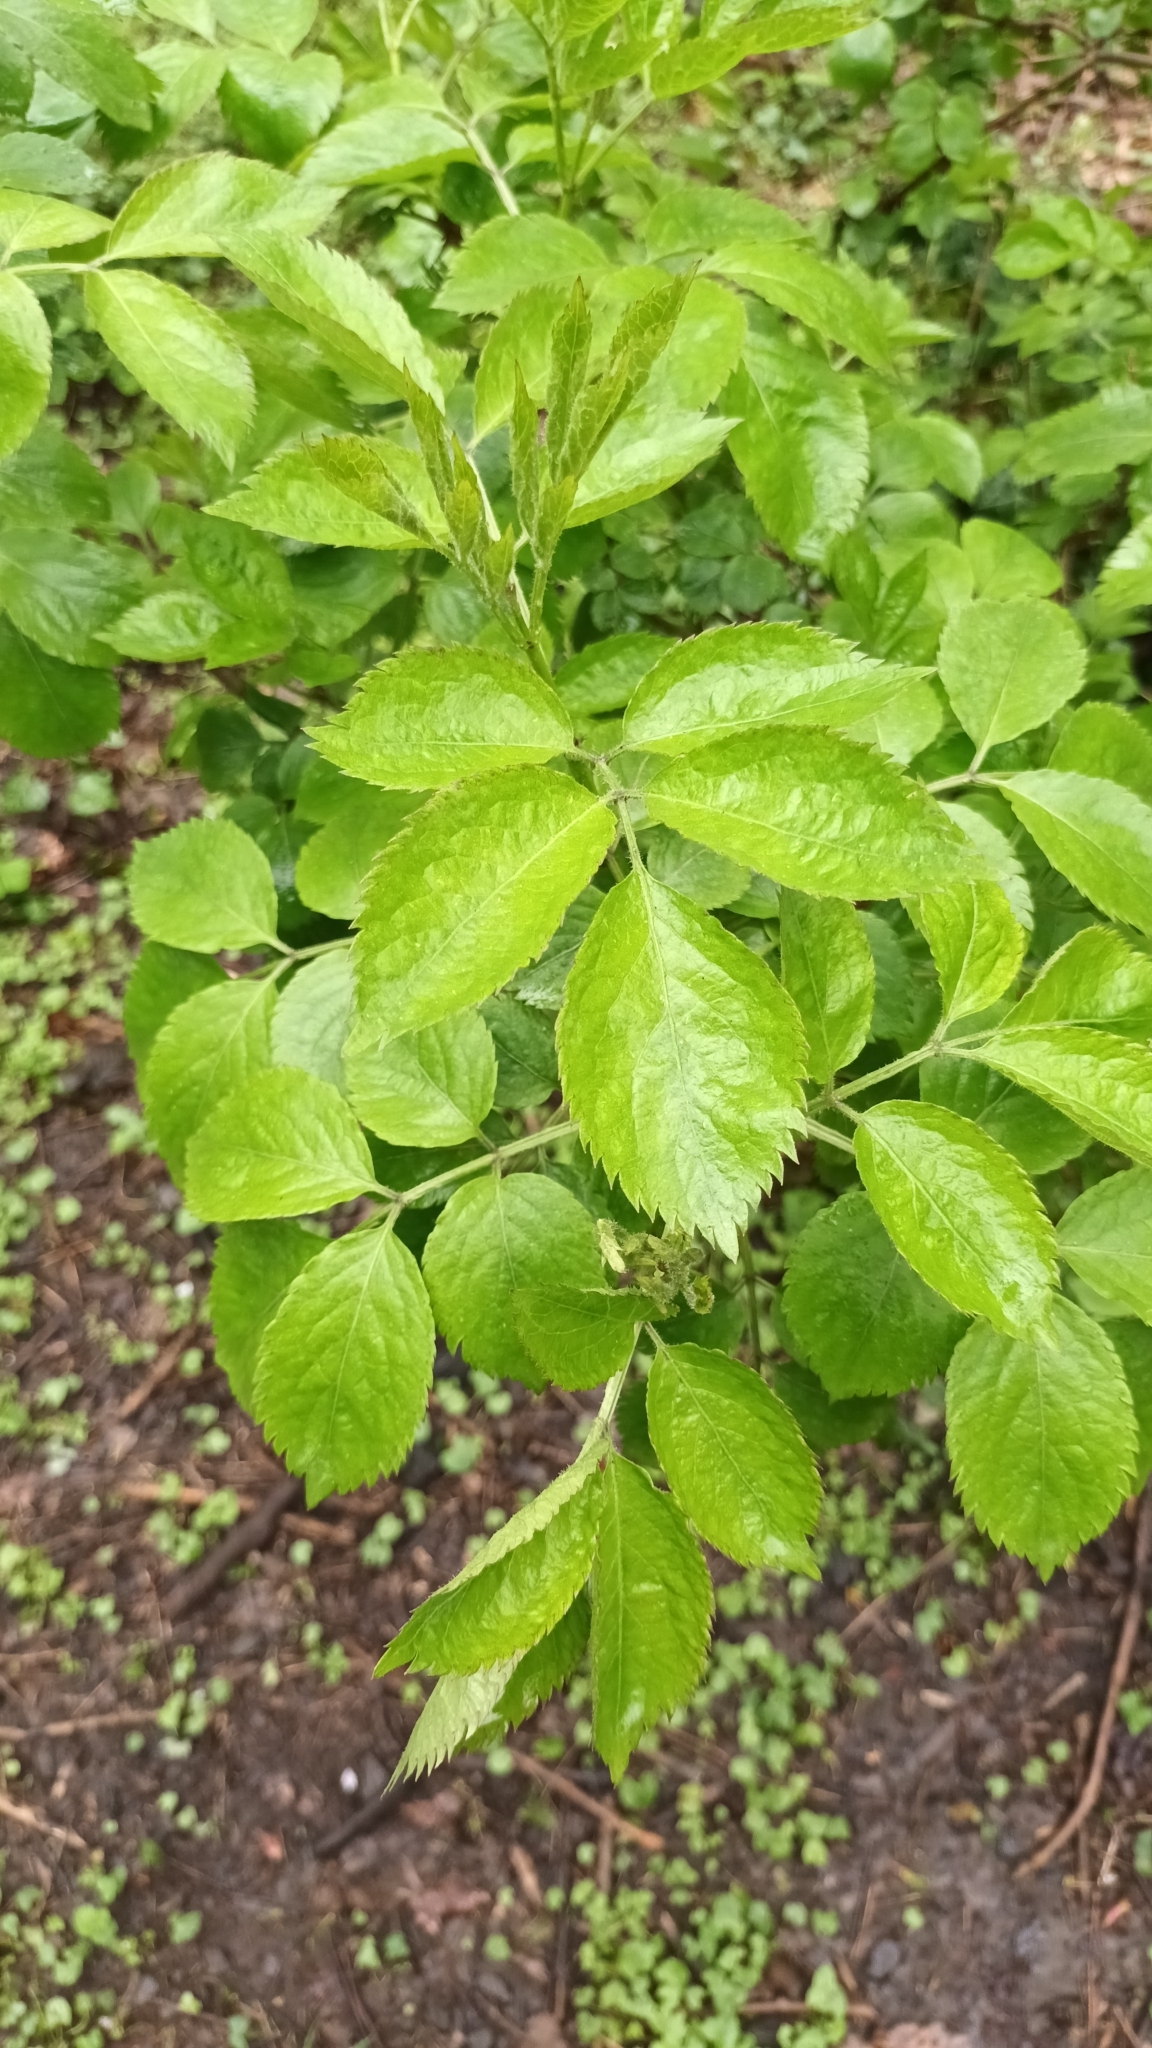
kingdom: Plantae
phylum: Tracheophyta
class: Magnoliopsida
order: Dipsacales
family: Viburnaceae
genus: Sambucus
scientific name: Sambucus nigra
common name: Elder
